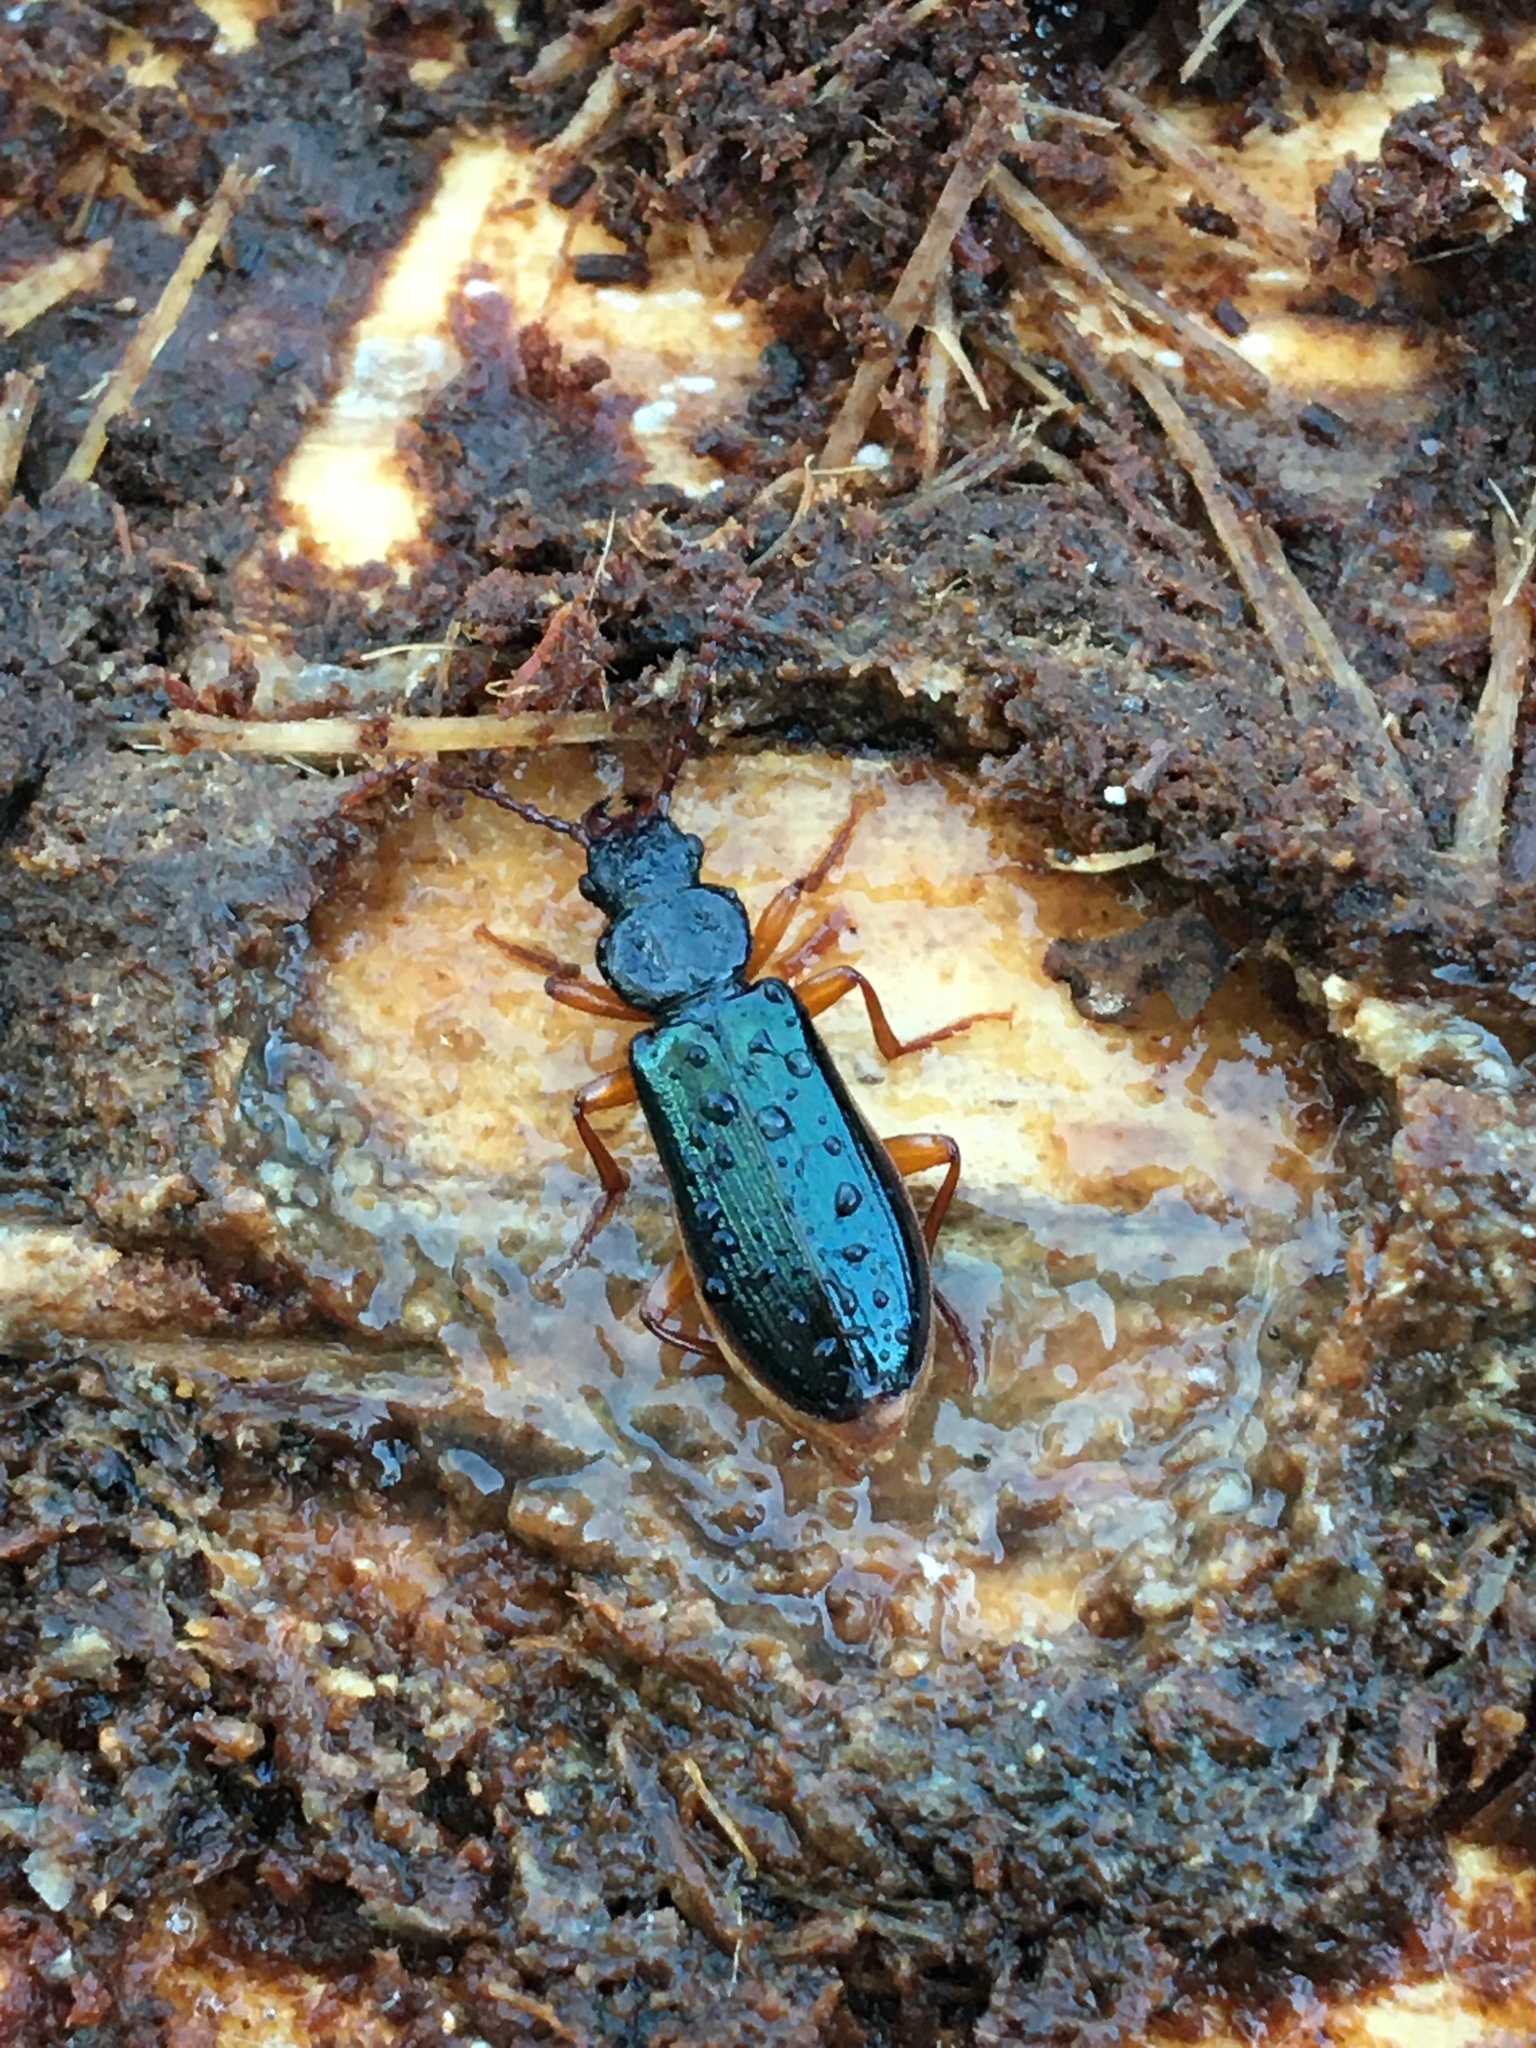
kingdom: Animalia
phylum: Arthropoda
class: Insecta
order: Coleoptera
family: Pythidae
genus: Pytho
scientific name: Pytho americanus
